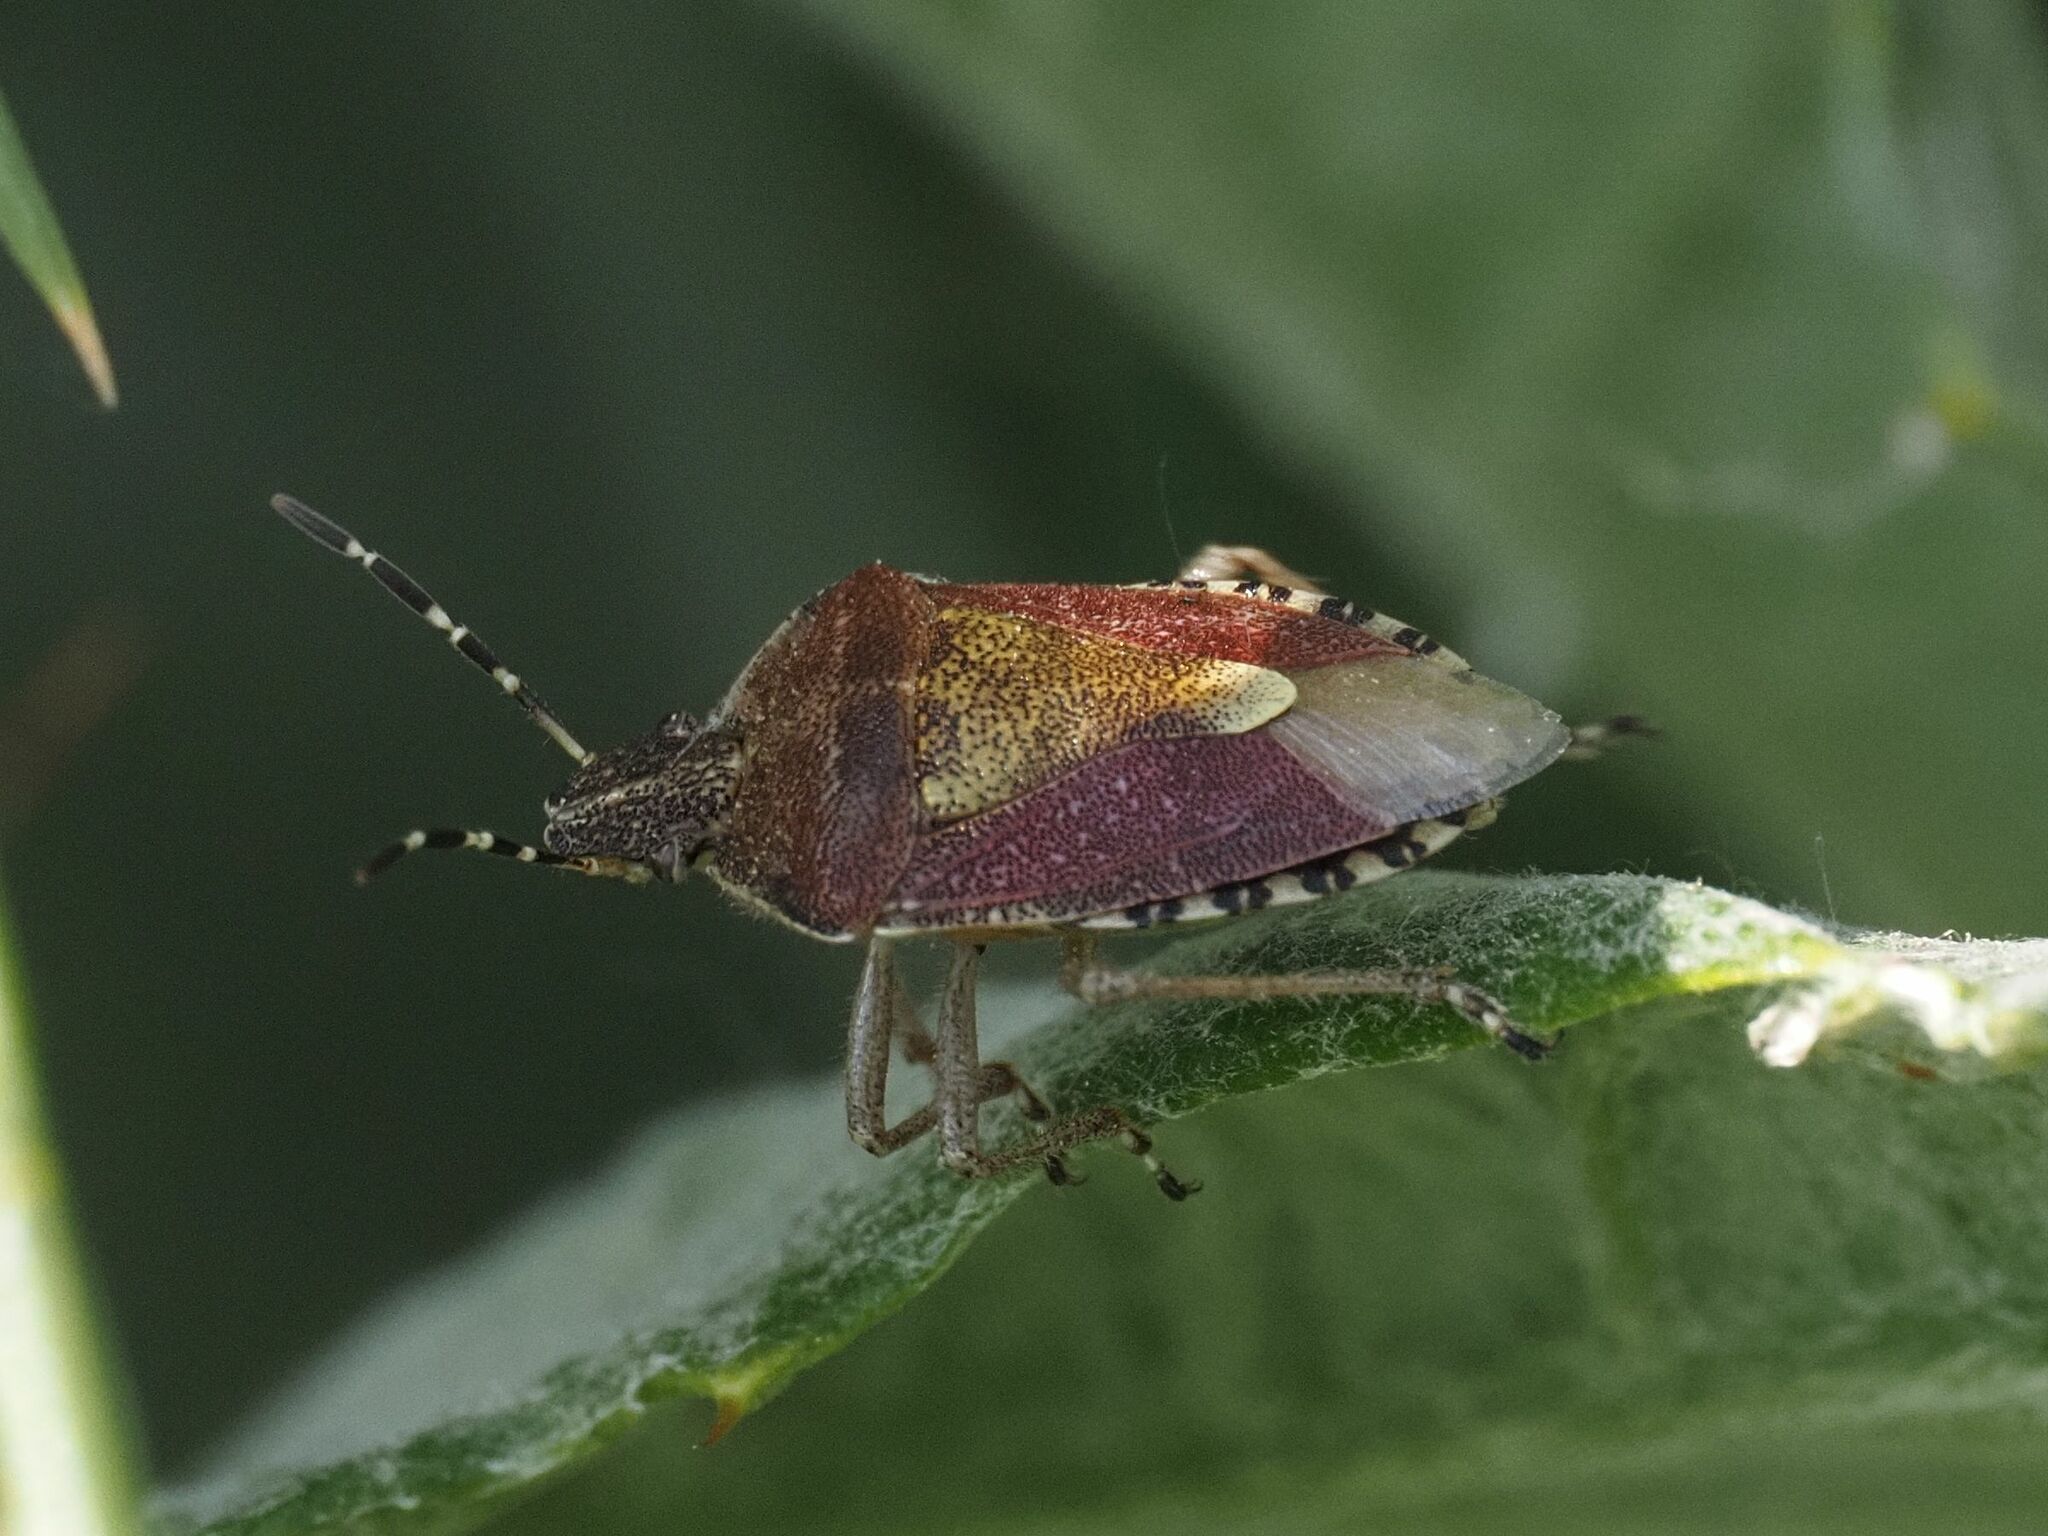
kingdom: Animalia
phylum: Arthropoda
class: Insecta
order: Hemiptera
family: Pentatomidae
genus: Dolycoris
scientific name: Dolycoris baccarum
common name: Sloe bug
